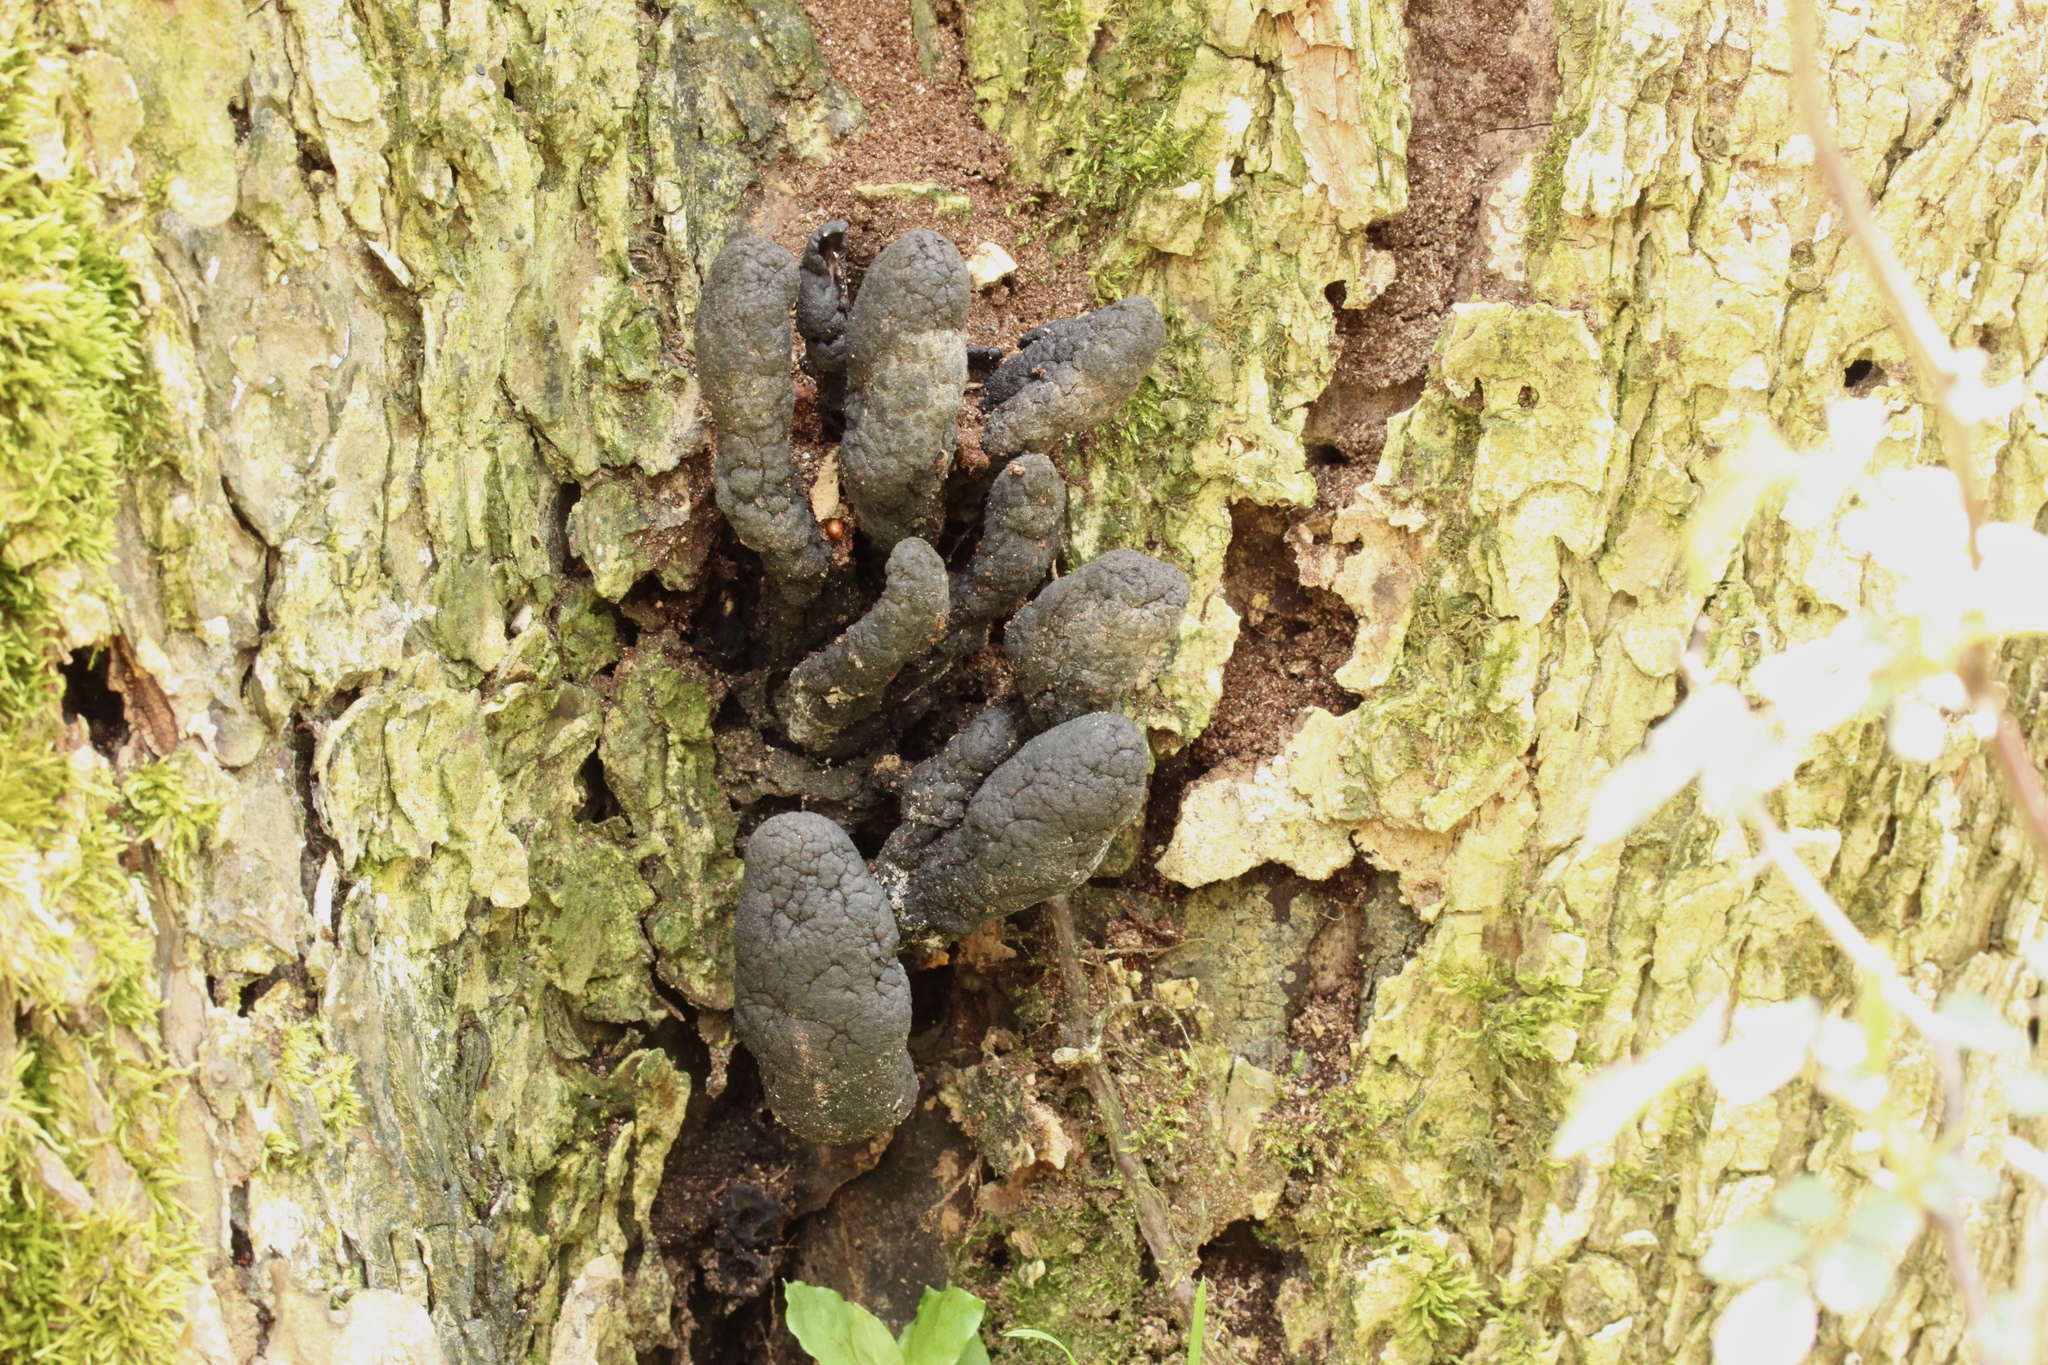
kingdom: Fungi
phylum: Ascomycota
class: Sordariomycetes
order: Xylariales
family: Xylariaceae
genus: Xylaria
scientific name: Xylaria polymorpha
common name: Dead man's fingers
